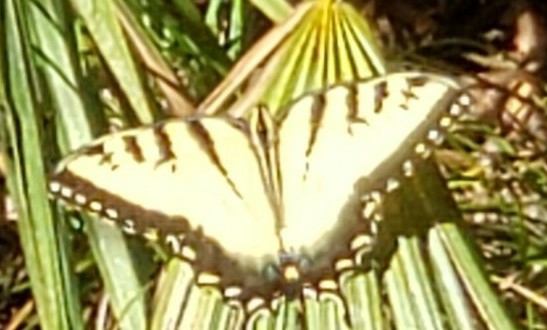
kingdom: Animalia
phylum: Arthropoda
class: Insecta
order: Lepidoptera
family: Papilionidae
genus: Papilio
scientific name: Papilio glaucus
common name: Tiger swallowtail
